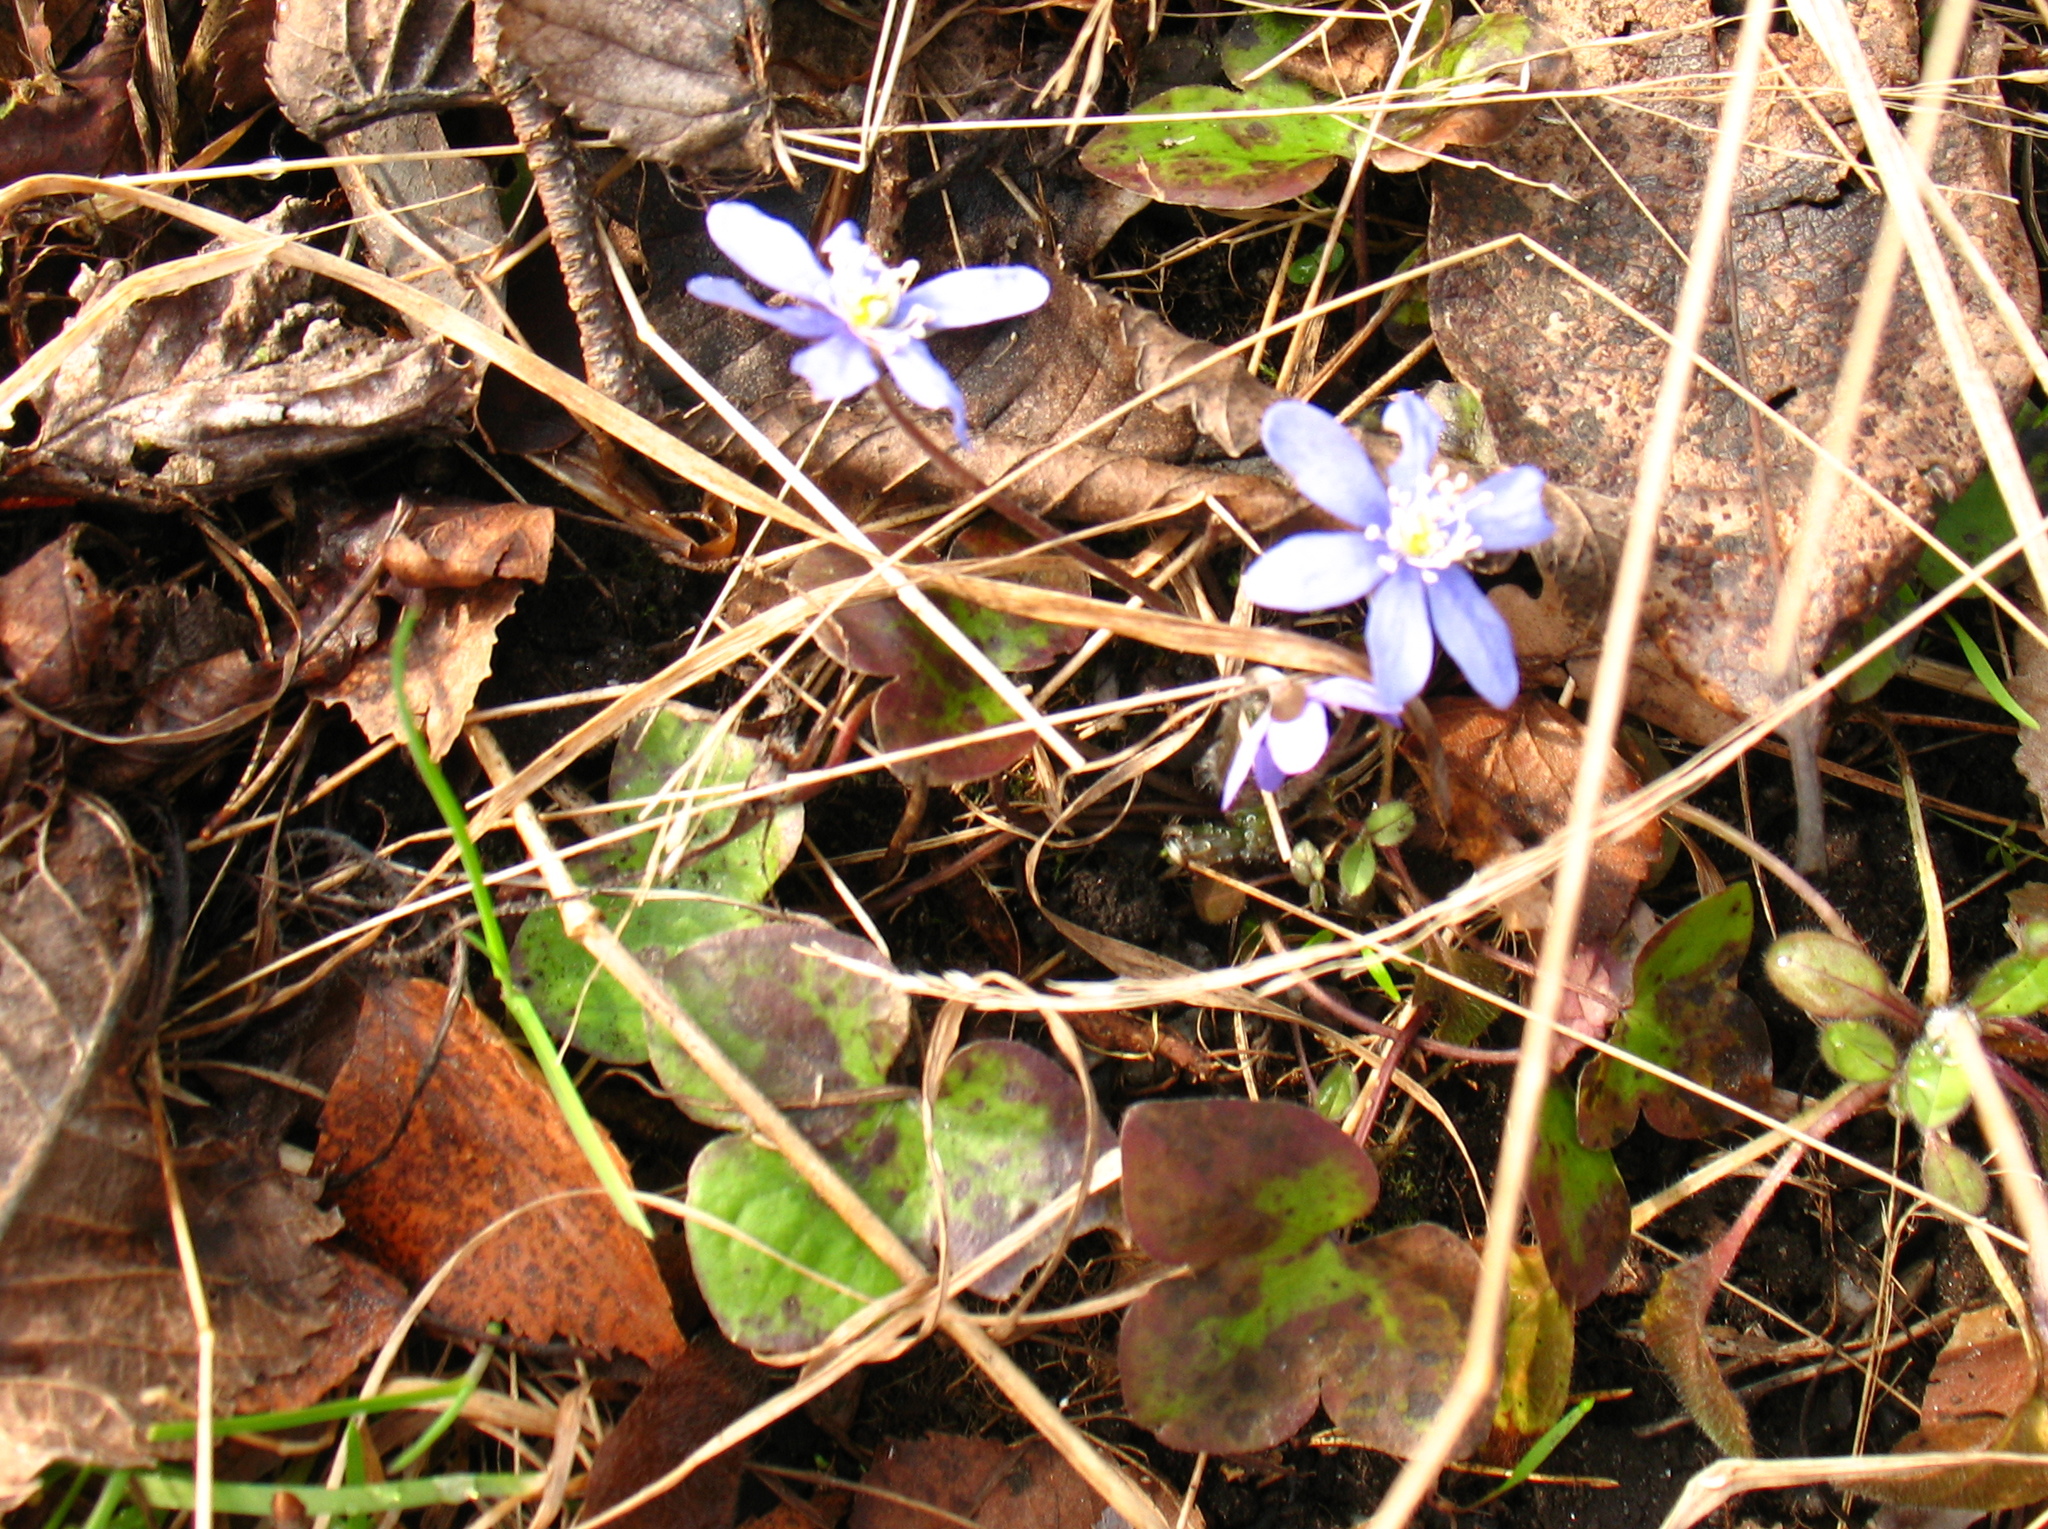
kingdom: Plantae
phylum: Tracheophyta
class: Magnoliopsida
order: Ranunculales
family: Ranunculaceae
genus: Hepatica
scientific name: Hepatica nobilis
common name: Liverleaf
